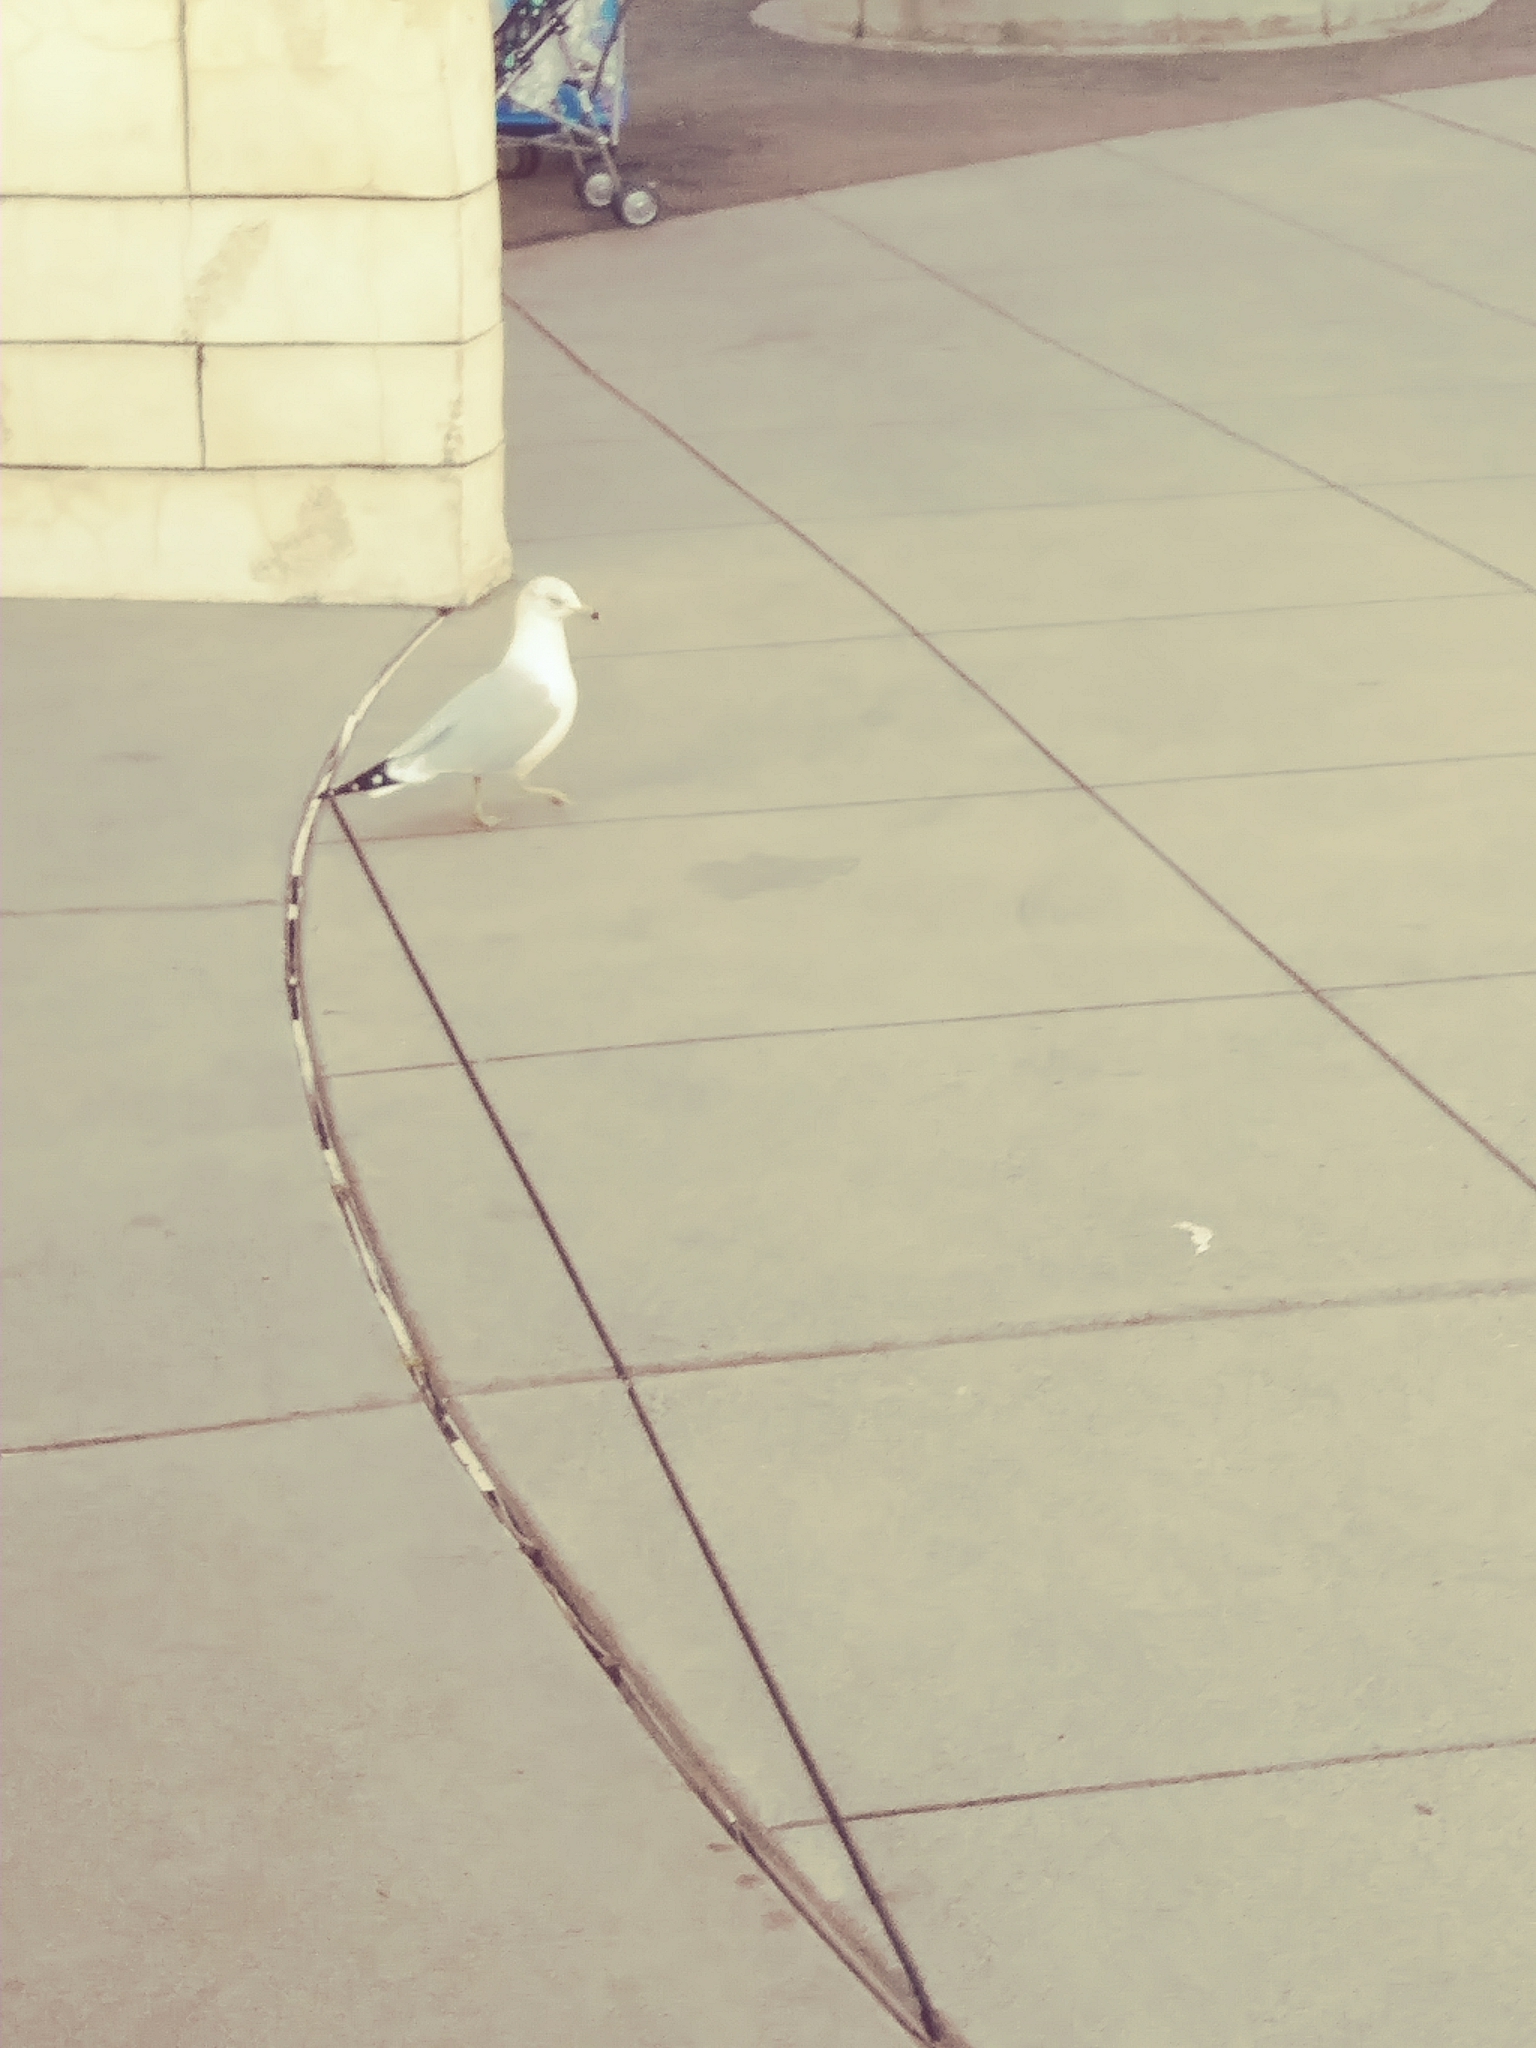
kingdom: Animalia
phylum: Chordata
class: Aves
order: Charadriiformes
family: Laridae
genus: Larus
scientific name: Larus delawarensis
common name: Ring-billed gull
